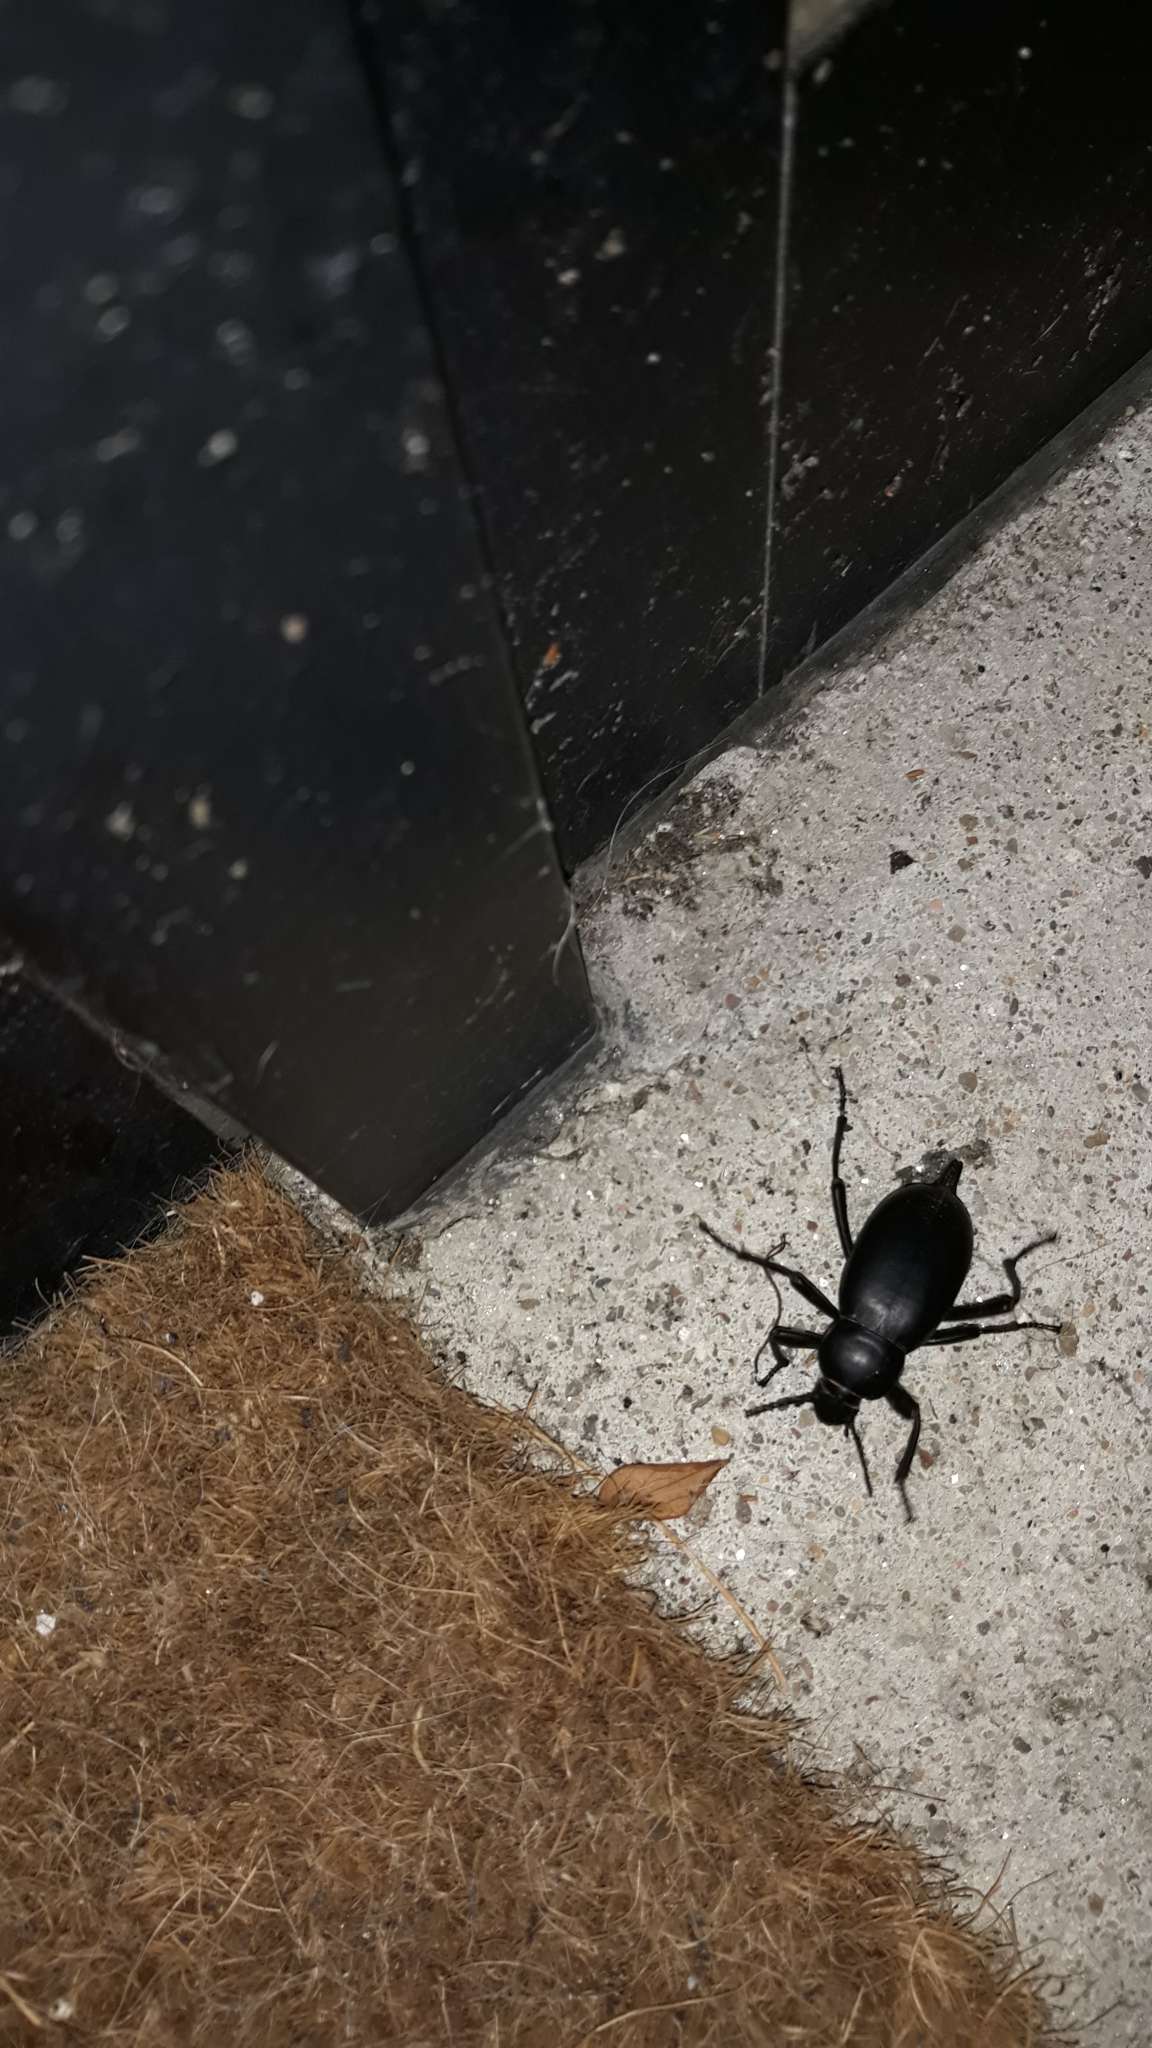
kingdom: Animalia
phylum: Arthropoda
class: Insecta
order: Coleoptera
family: Tenebrionidae
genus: Blaps
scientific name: Blaps
